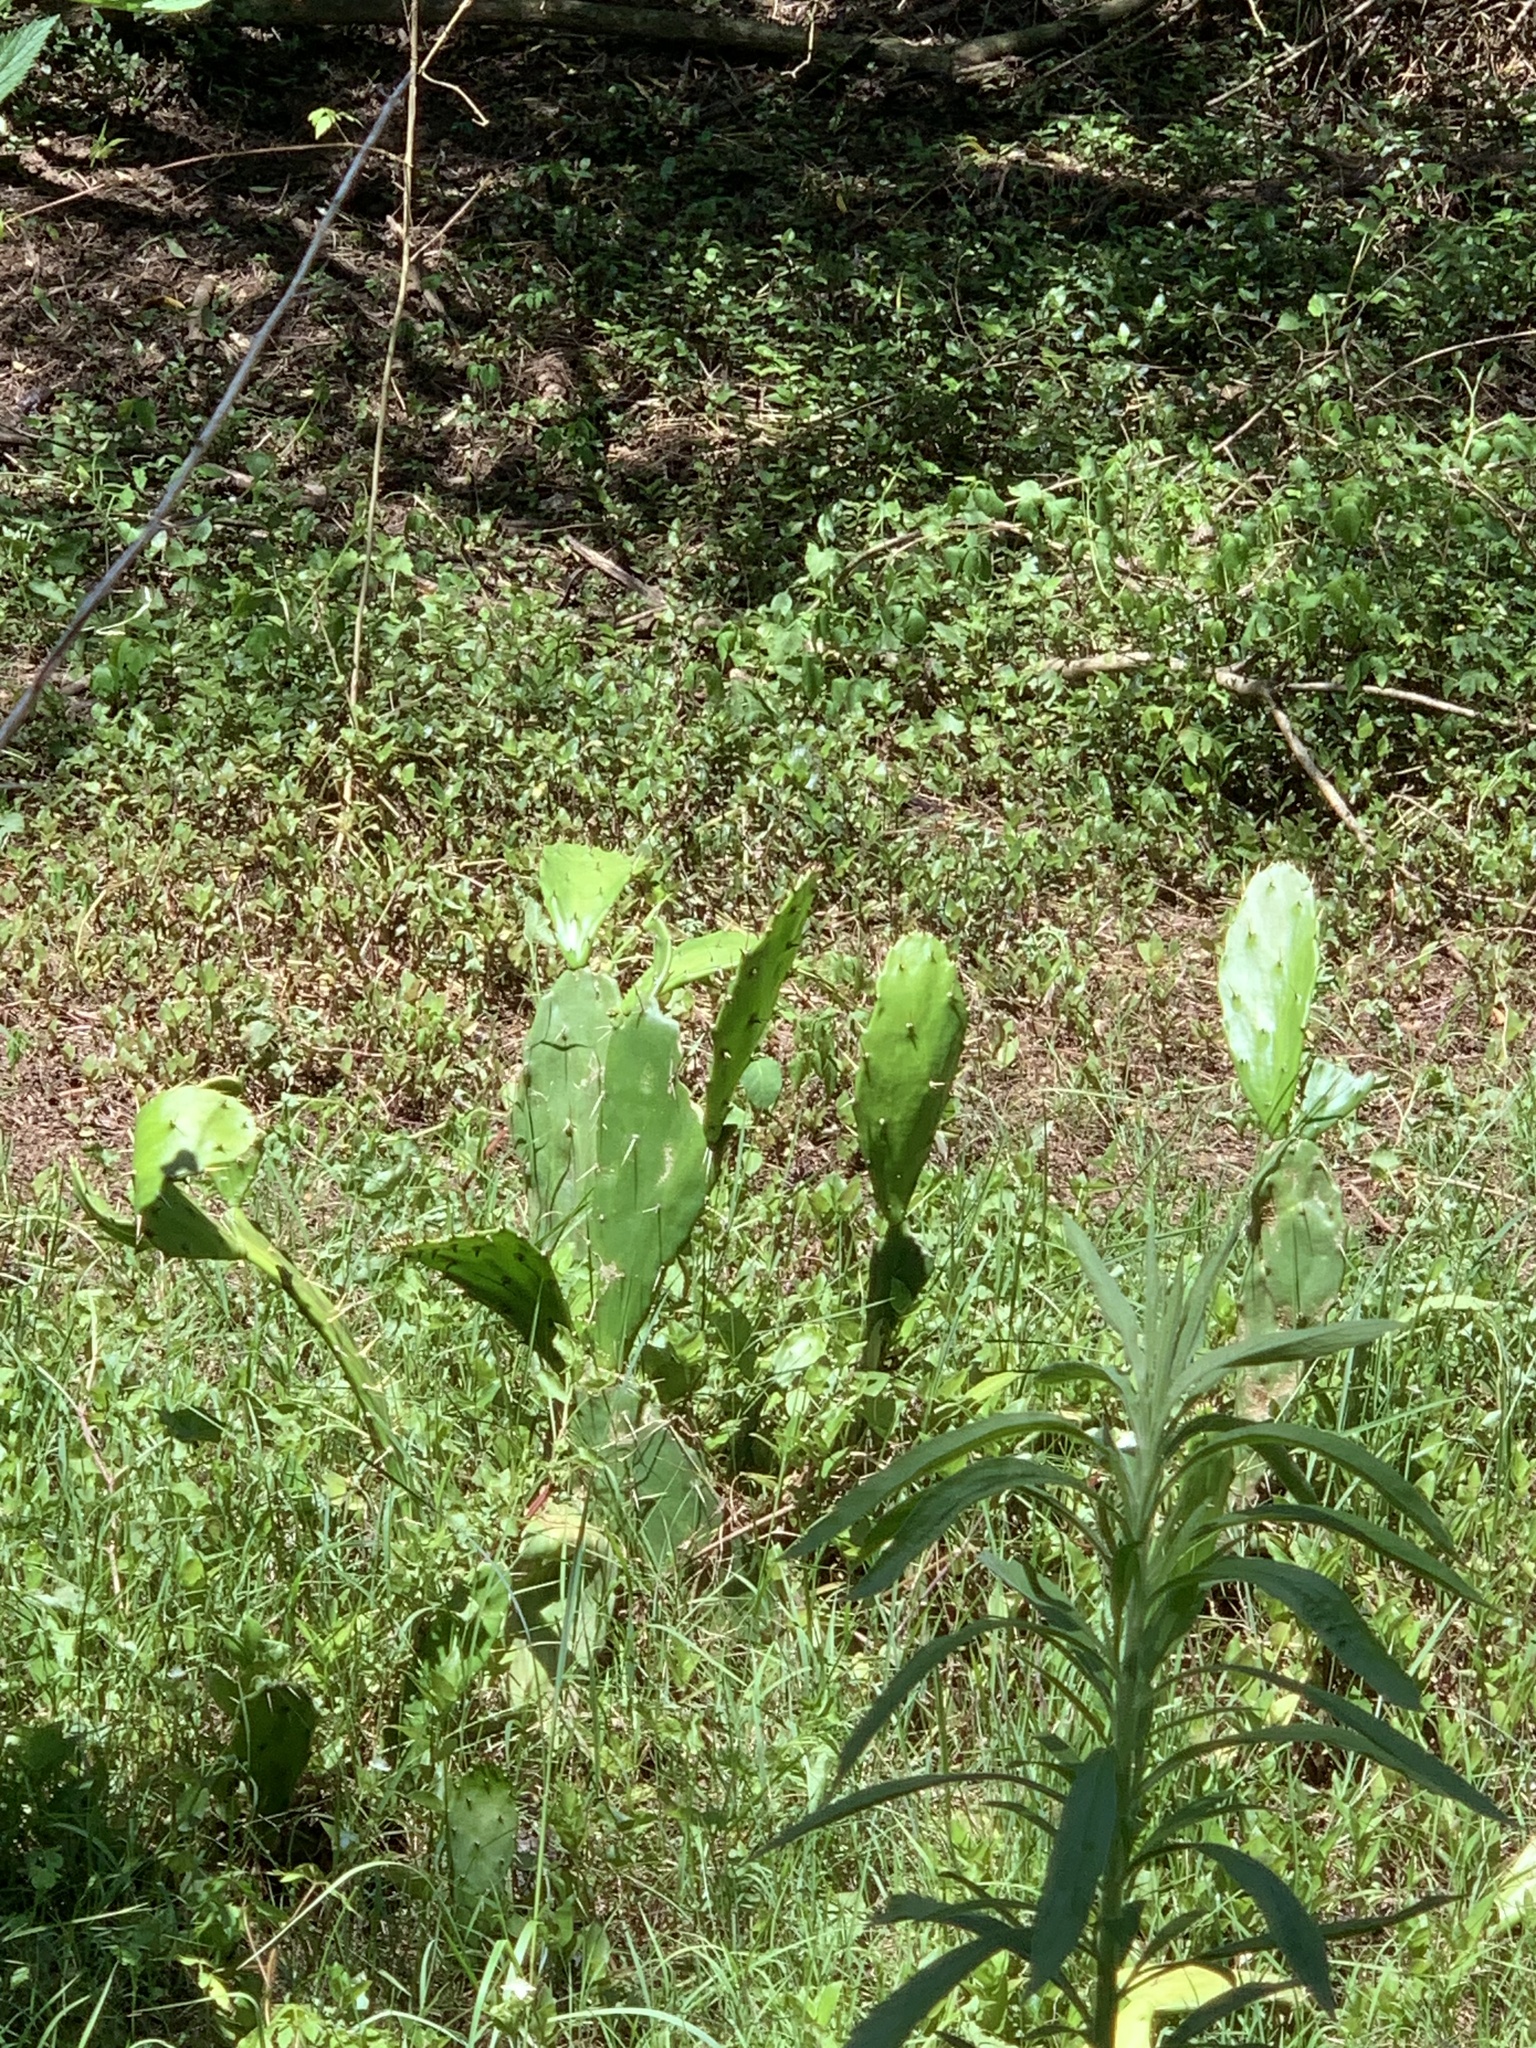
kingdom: Plantae
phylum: Tracheophyta
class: Magnoliopsida
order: Caryophyllales
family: Cactaceae
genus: Opuntia
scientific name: Opuntia monacantha
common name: Common pricklypear
